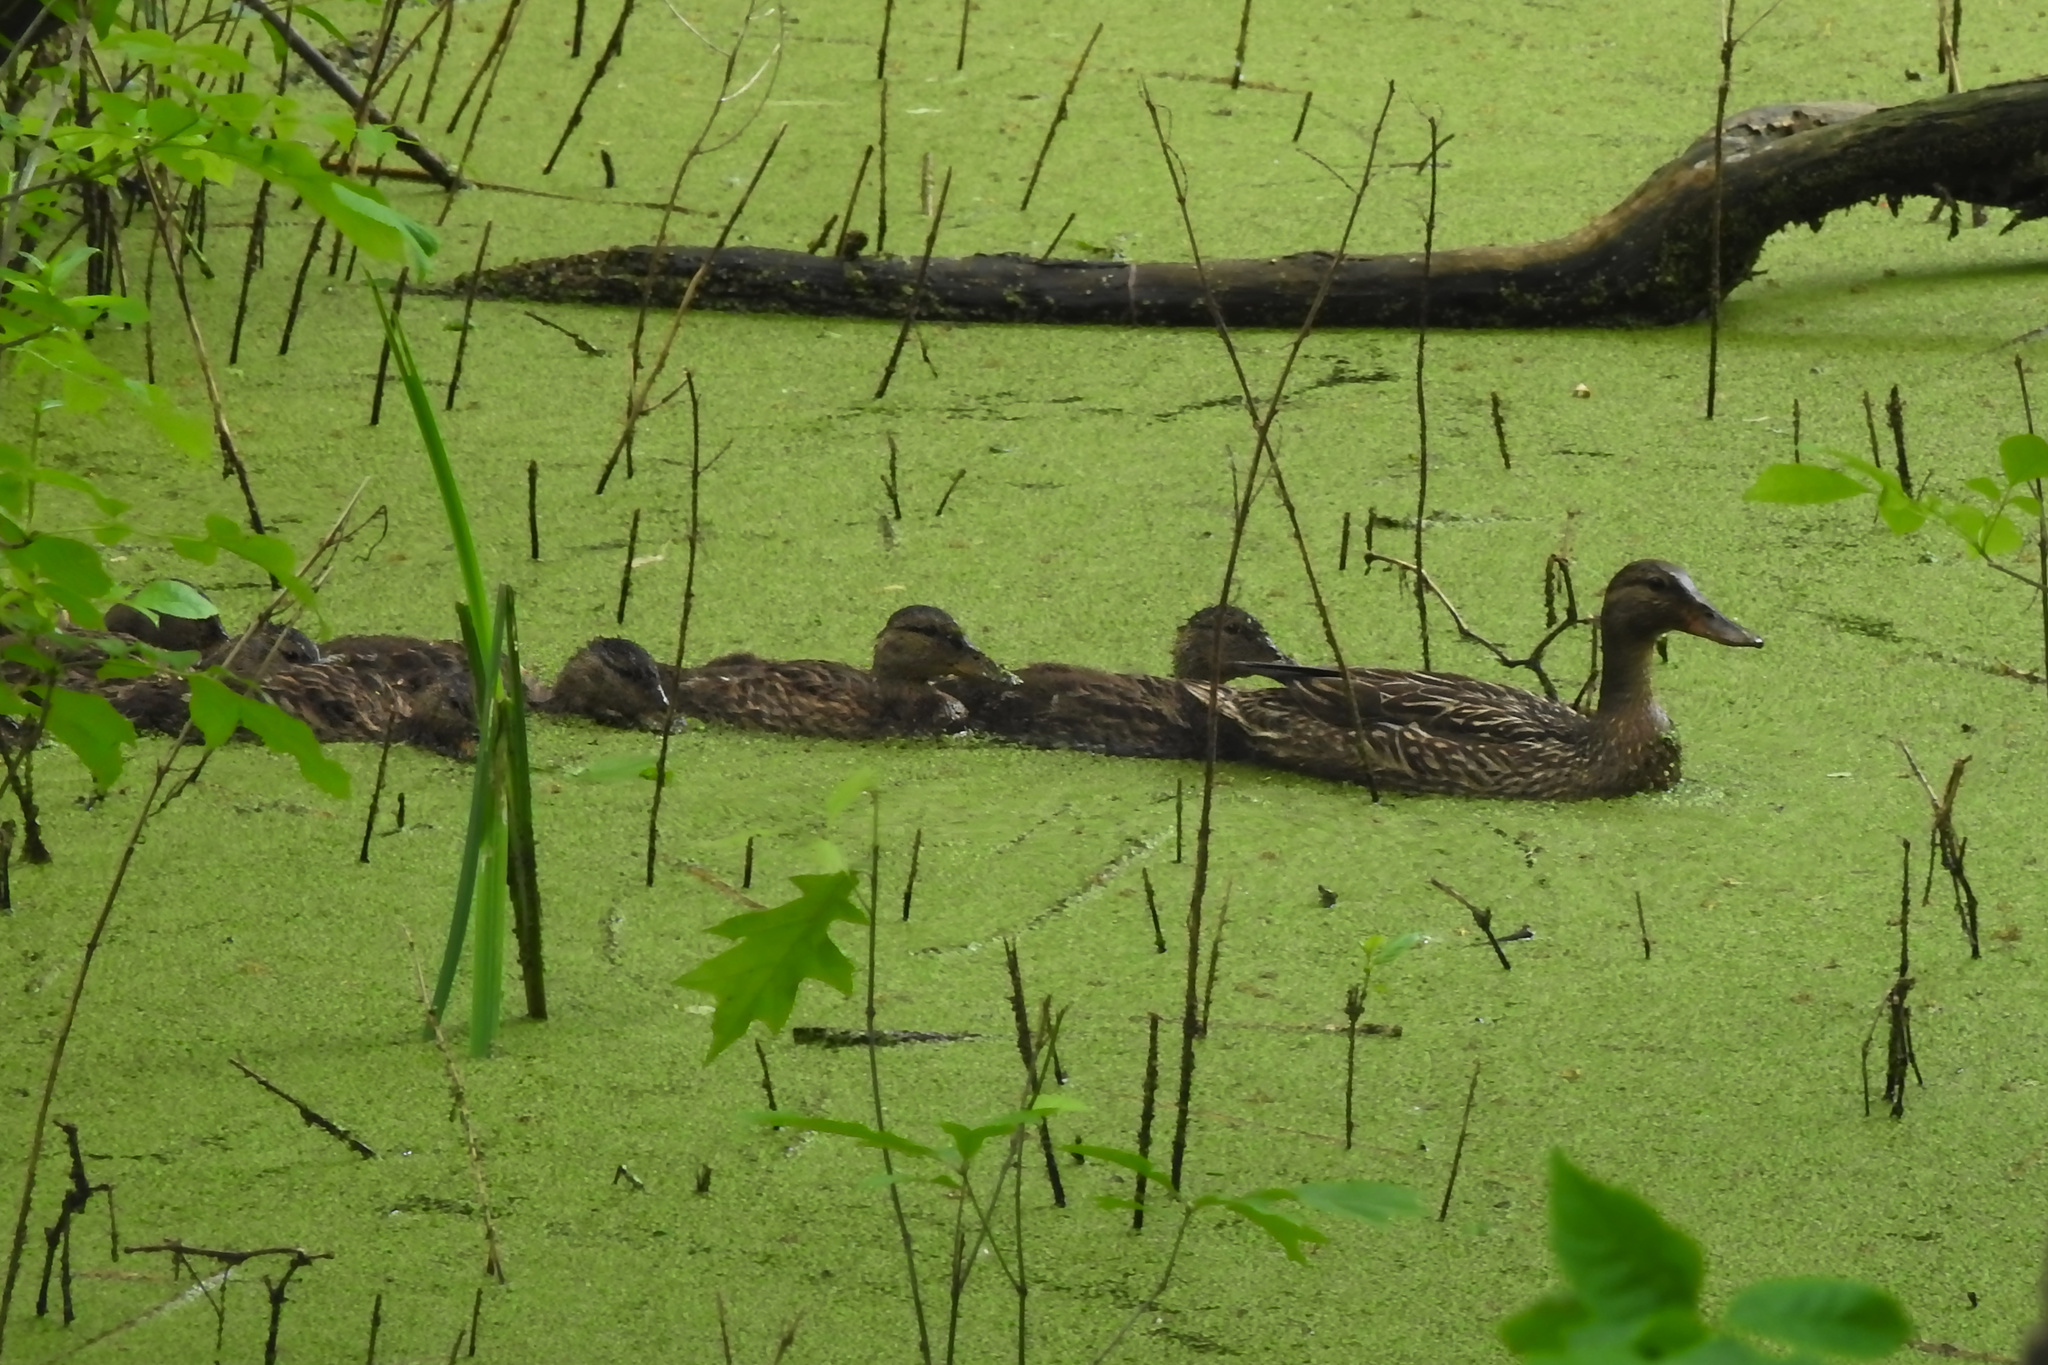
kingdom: Animalia
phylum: Chordata
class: Aves
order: Anseriformes
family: Anatidae
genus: Anas
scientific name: Anas platyrhynchos
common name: Mallard
